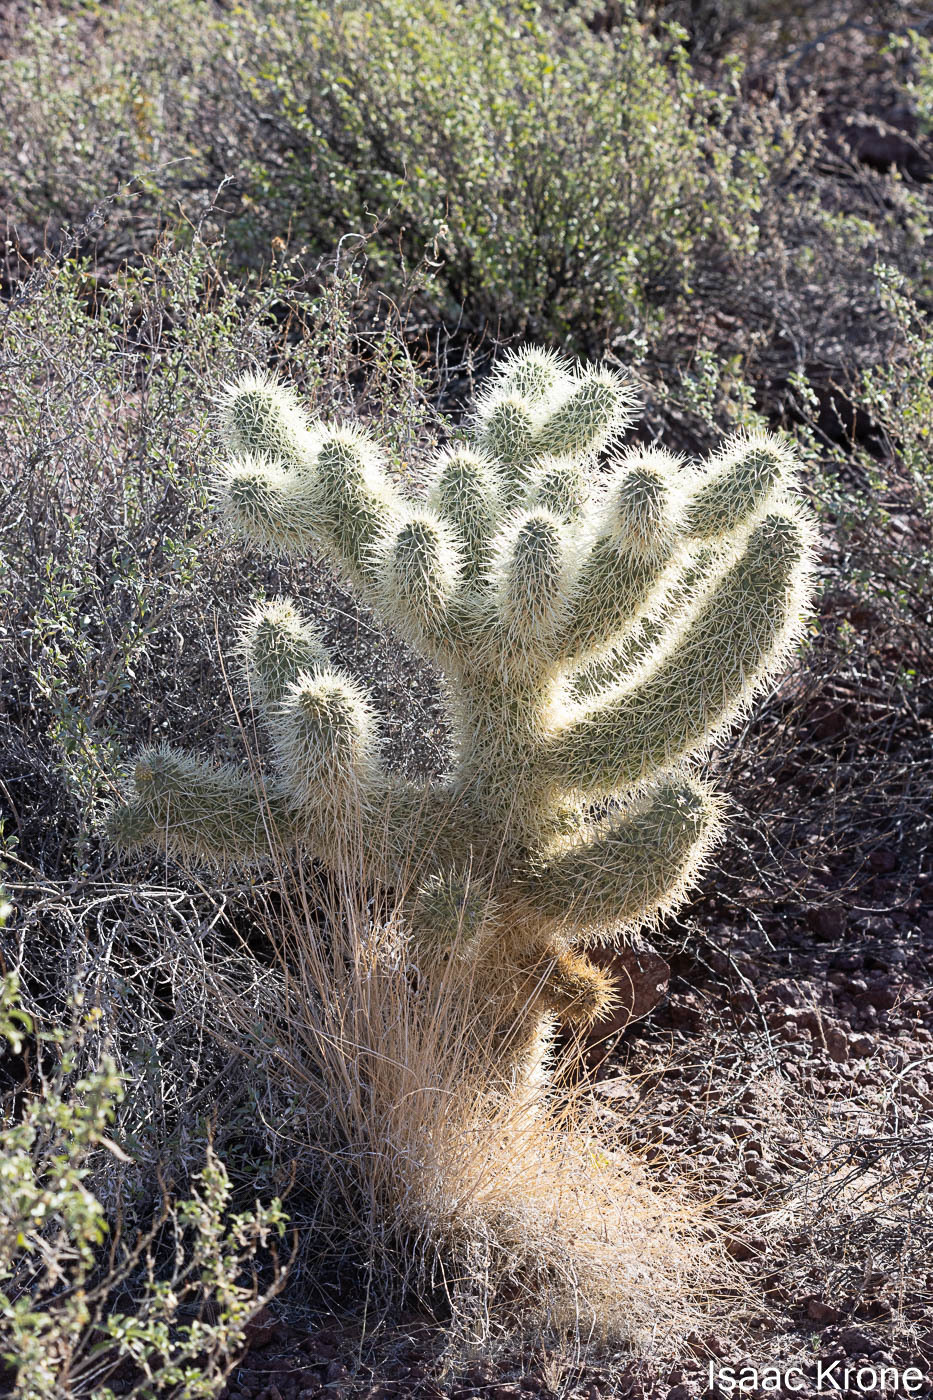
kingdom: Plantae
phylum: Tracheophyta
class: Magnoliopsida
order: Caryophyllales
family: Cactaceae
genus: Cylindropuntia
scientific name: Cylindropuntia fosbergii
